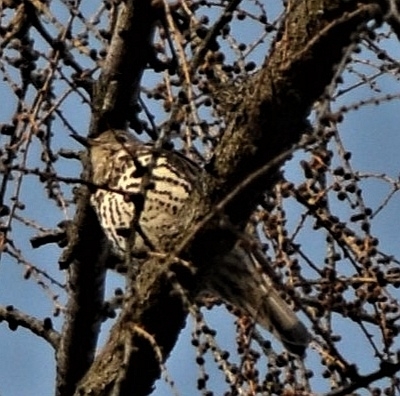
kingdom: Animalia
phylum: Chordata
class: Aves
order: Passeriformes
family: Turdidae
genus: Turdus
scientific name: Turdus viscivorus
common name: Mistle thrush
